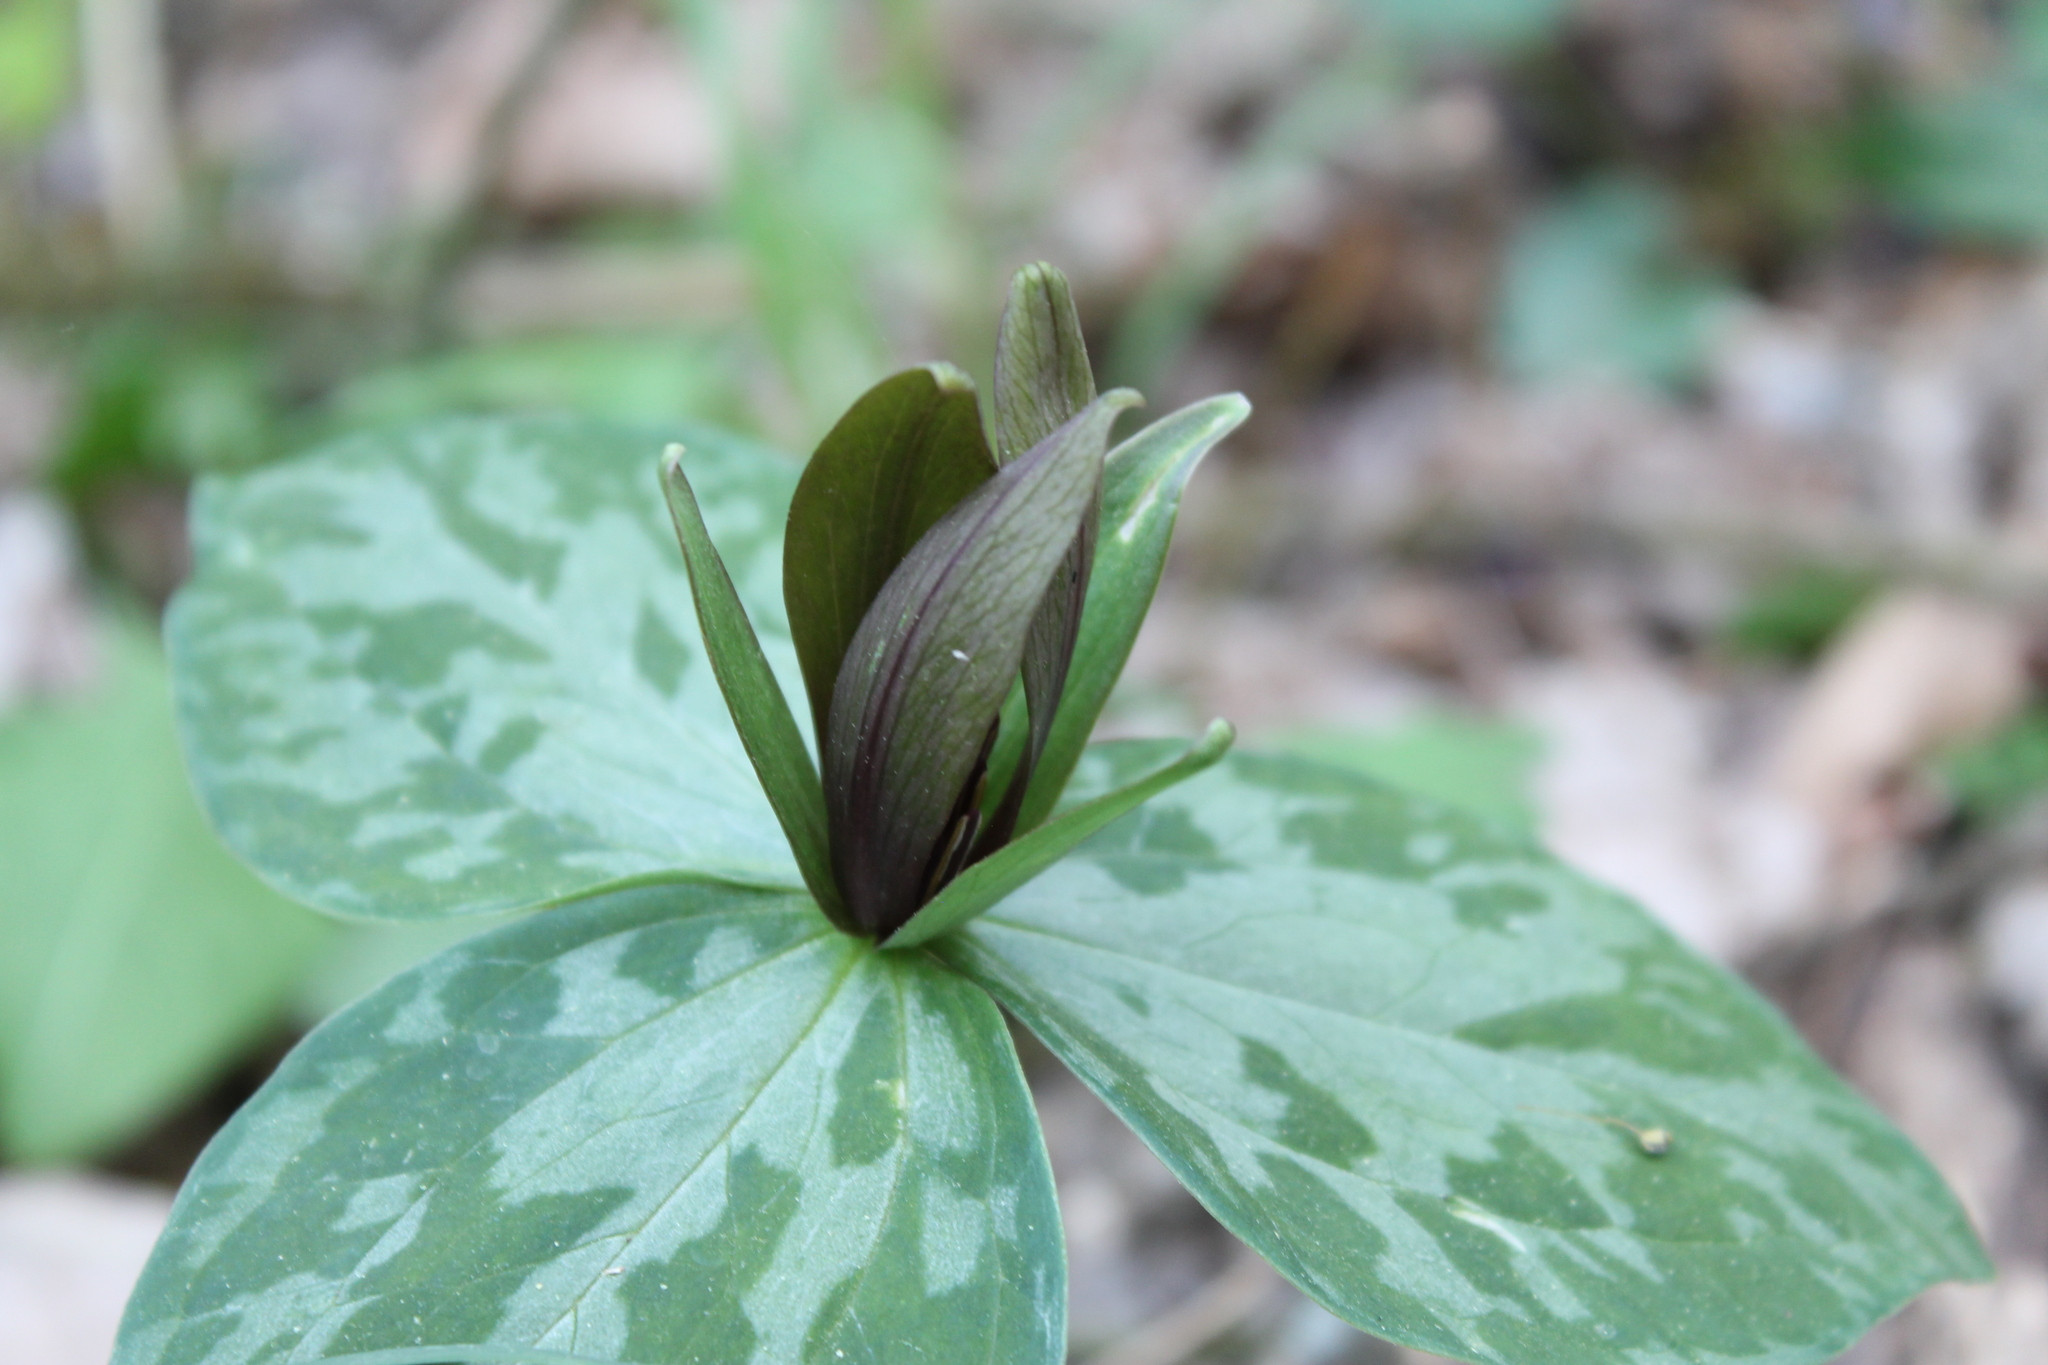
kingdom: Plantae
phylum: Tracheophyta
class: Liliopsida
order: Liliales
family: Melanthiaceae
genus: Trillium
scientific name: Trillium cuneatum
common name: Cuneate trillium
